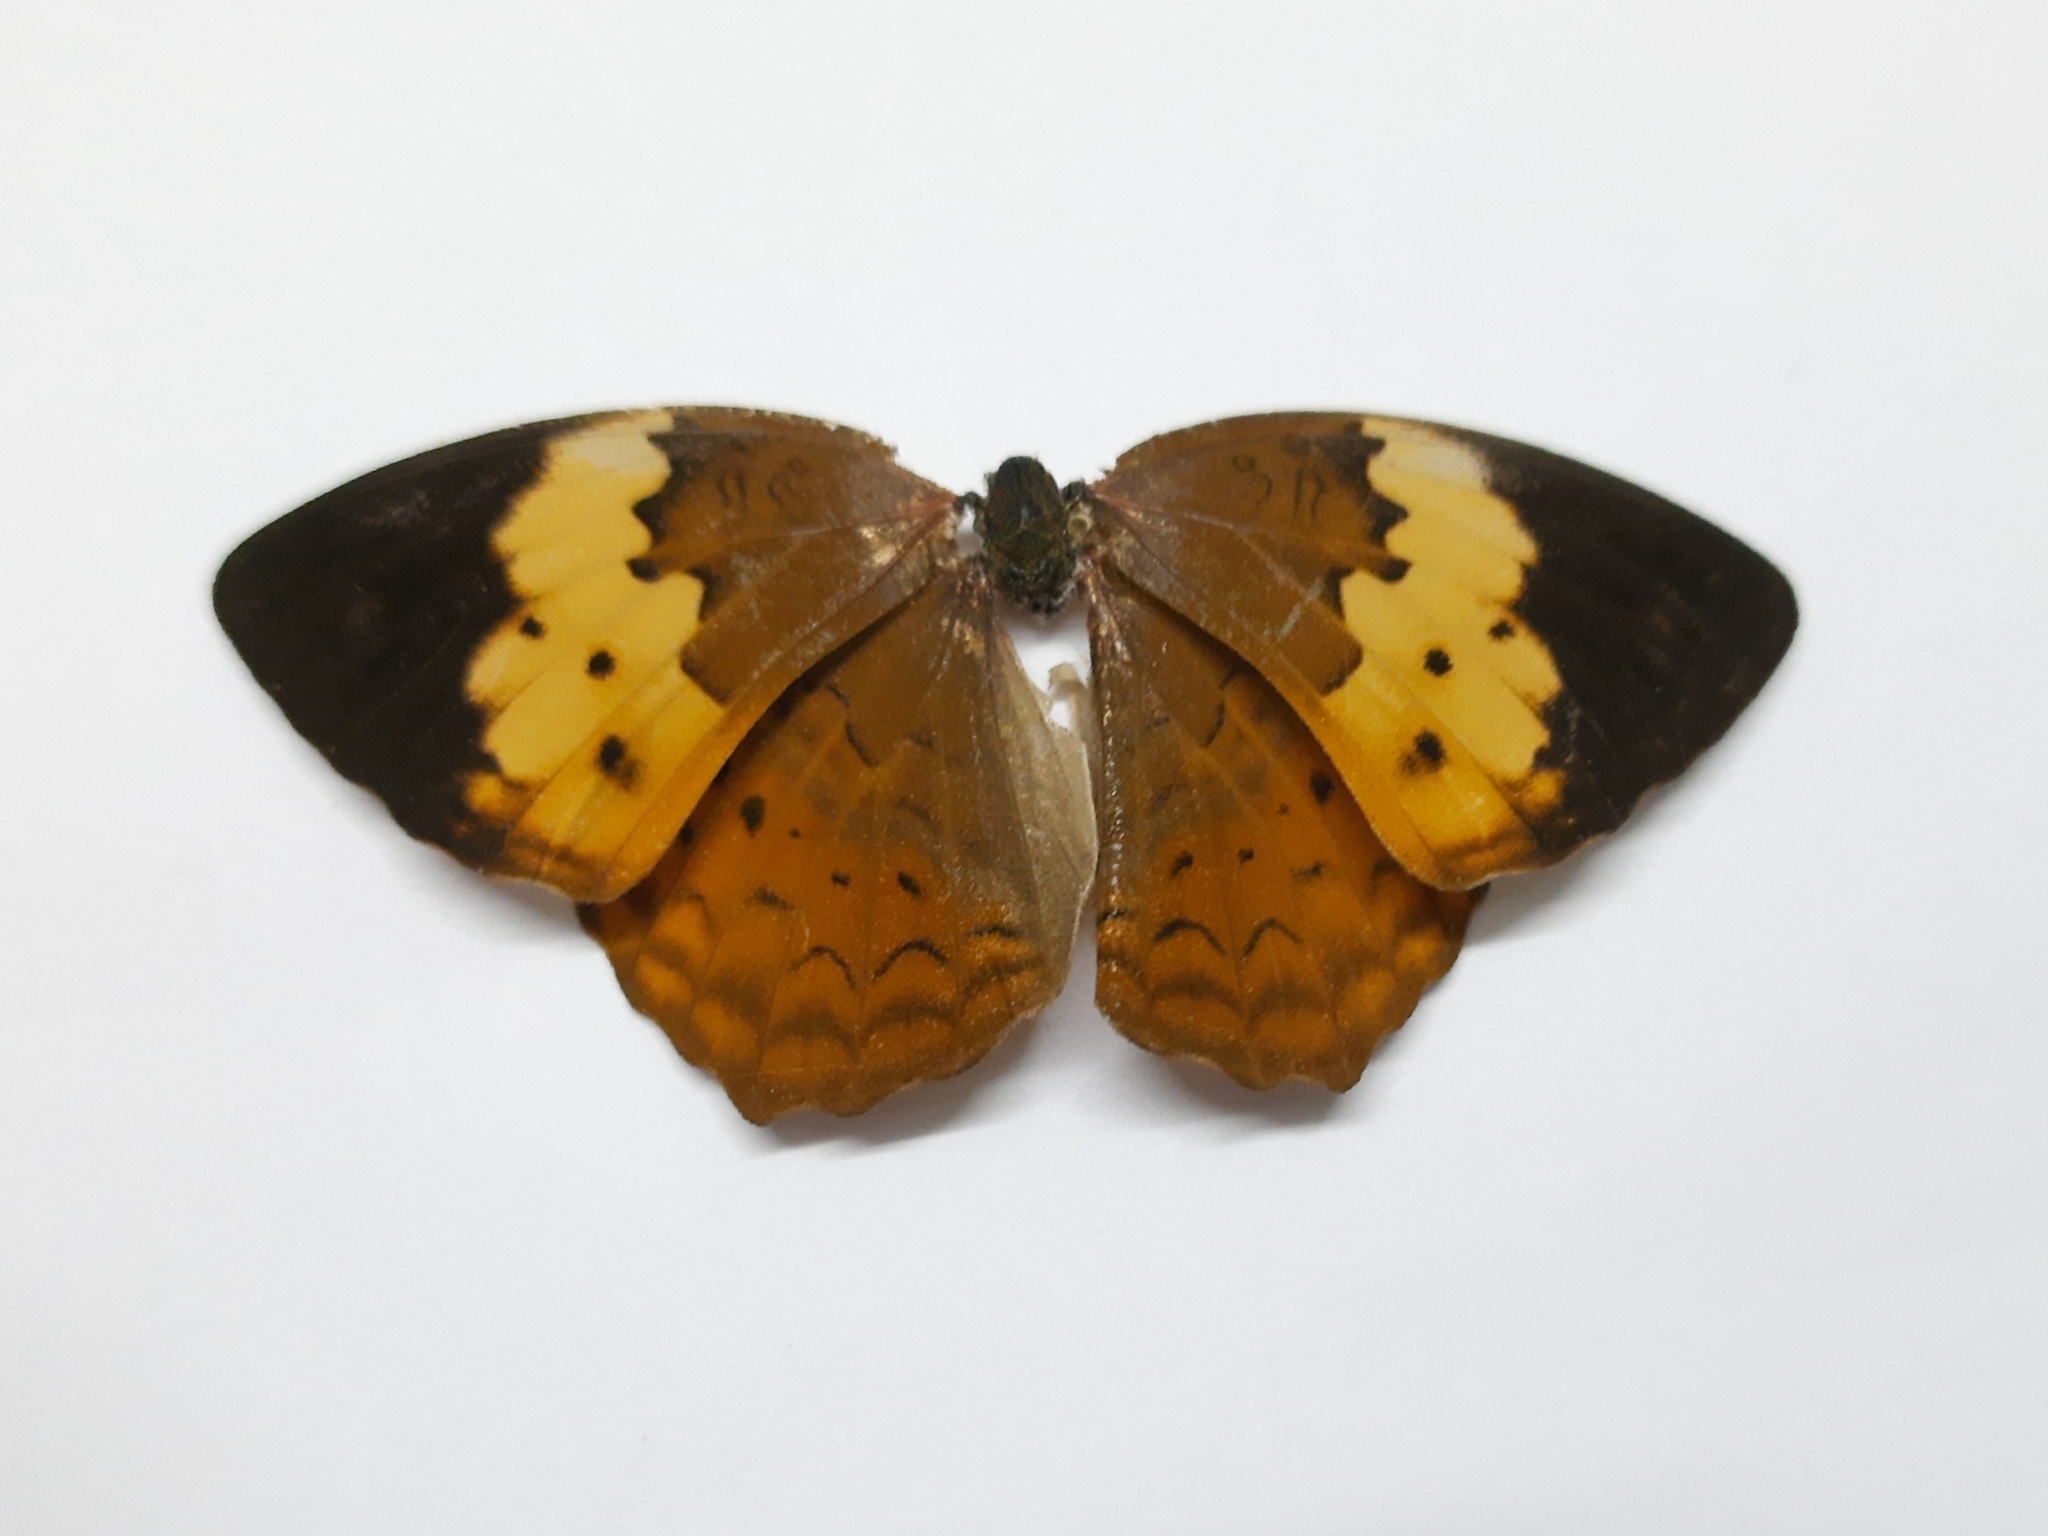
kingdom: Animalia
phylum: Arthropoda
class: Insecta
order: Lepidoptera
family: Nymphalidae
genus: Cupha
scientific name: Cupha erymanthis
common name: Rustic
